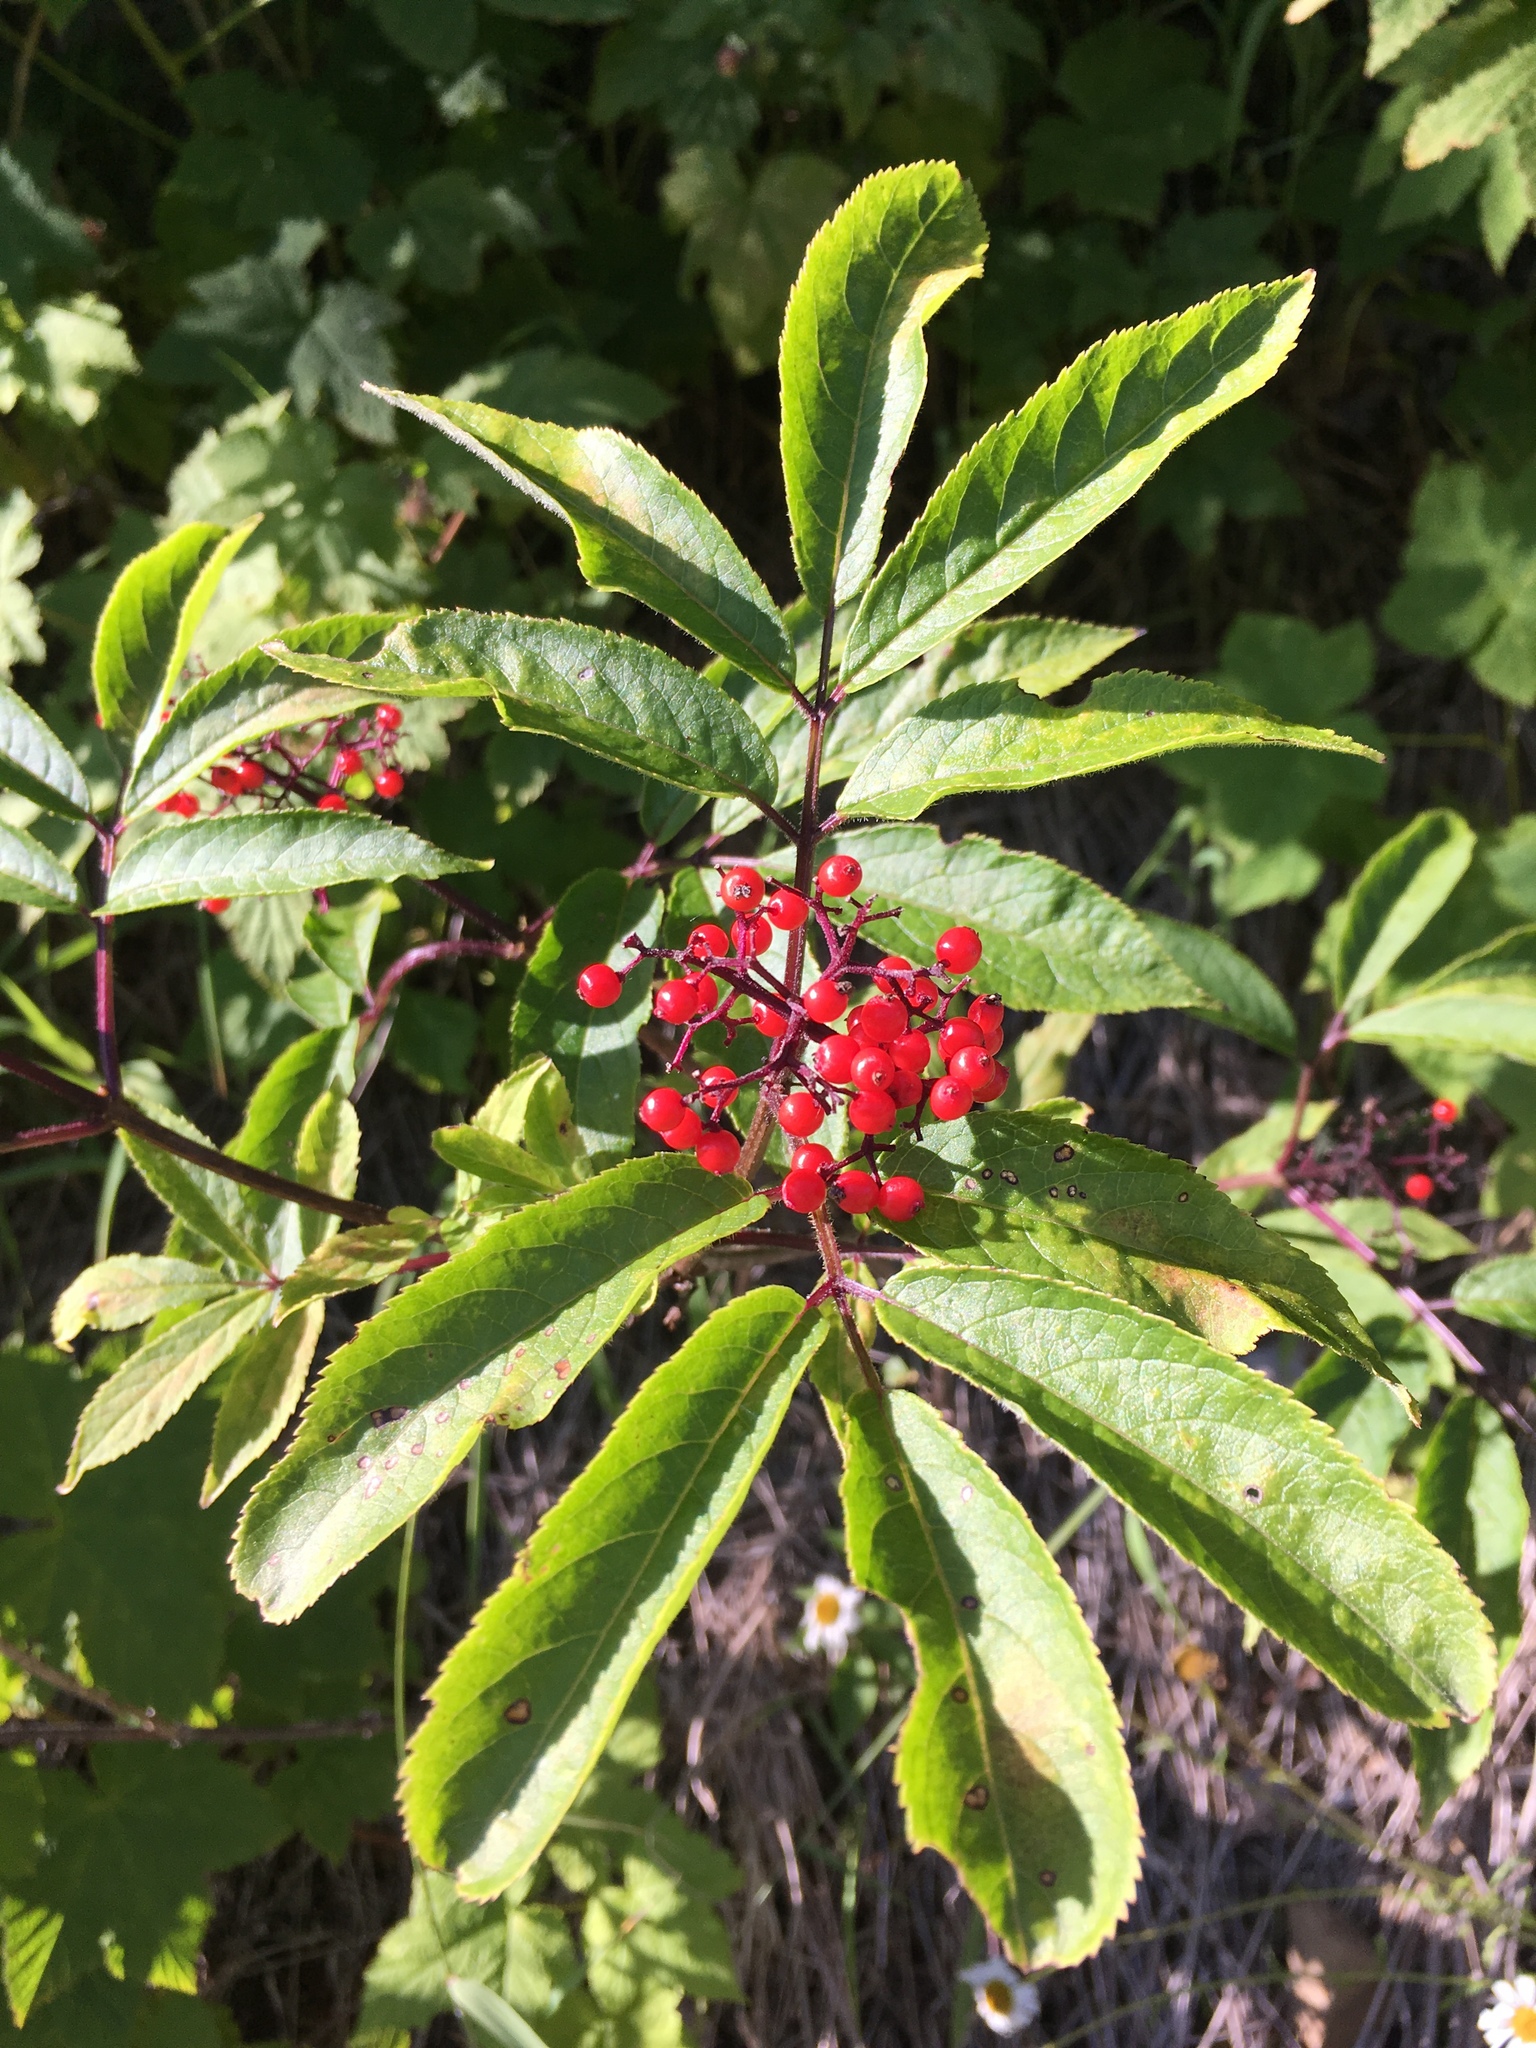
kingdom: Plantae
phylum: Tracheophyta
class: Magnoliopsida
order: Dipsacales
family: Viburnaceae
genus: Sambucus
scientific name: Sambucus racemosa
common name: Red-berried elder
